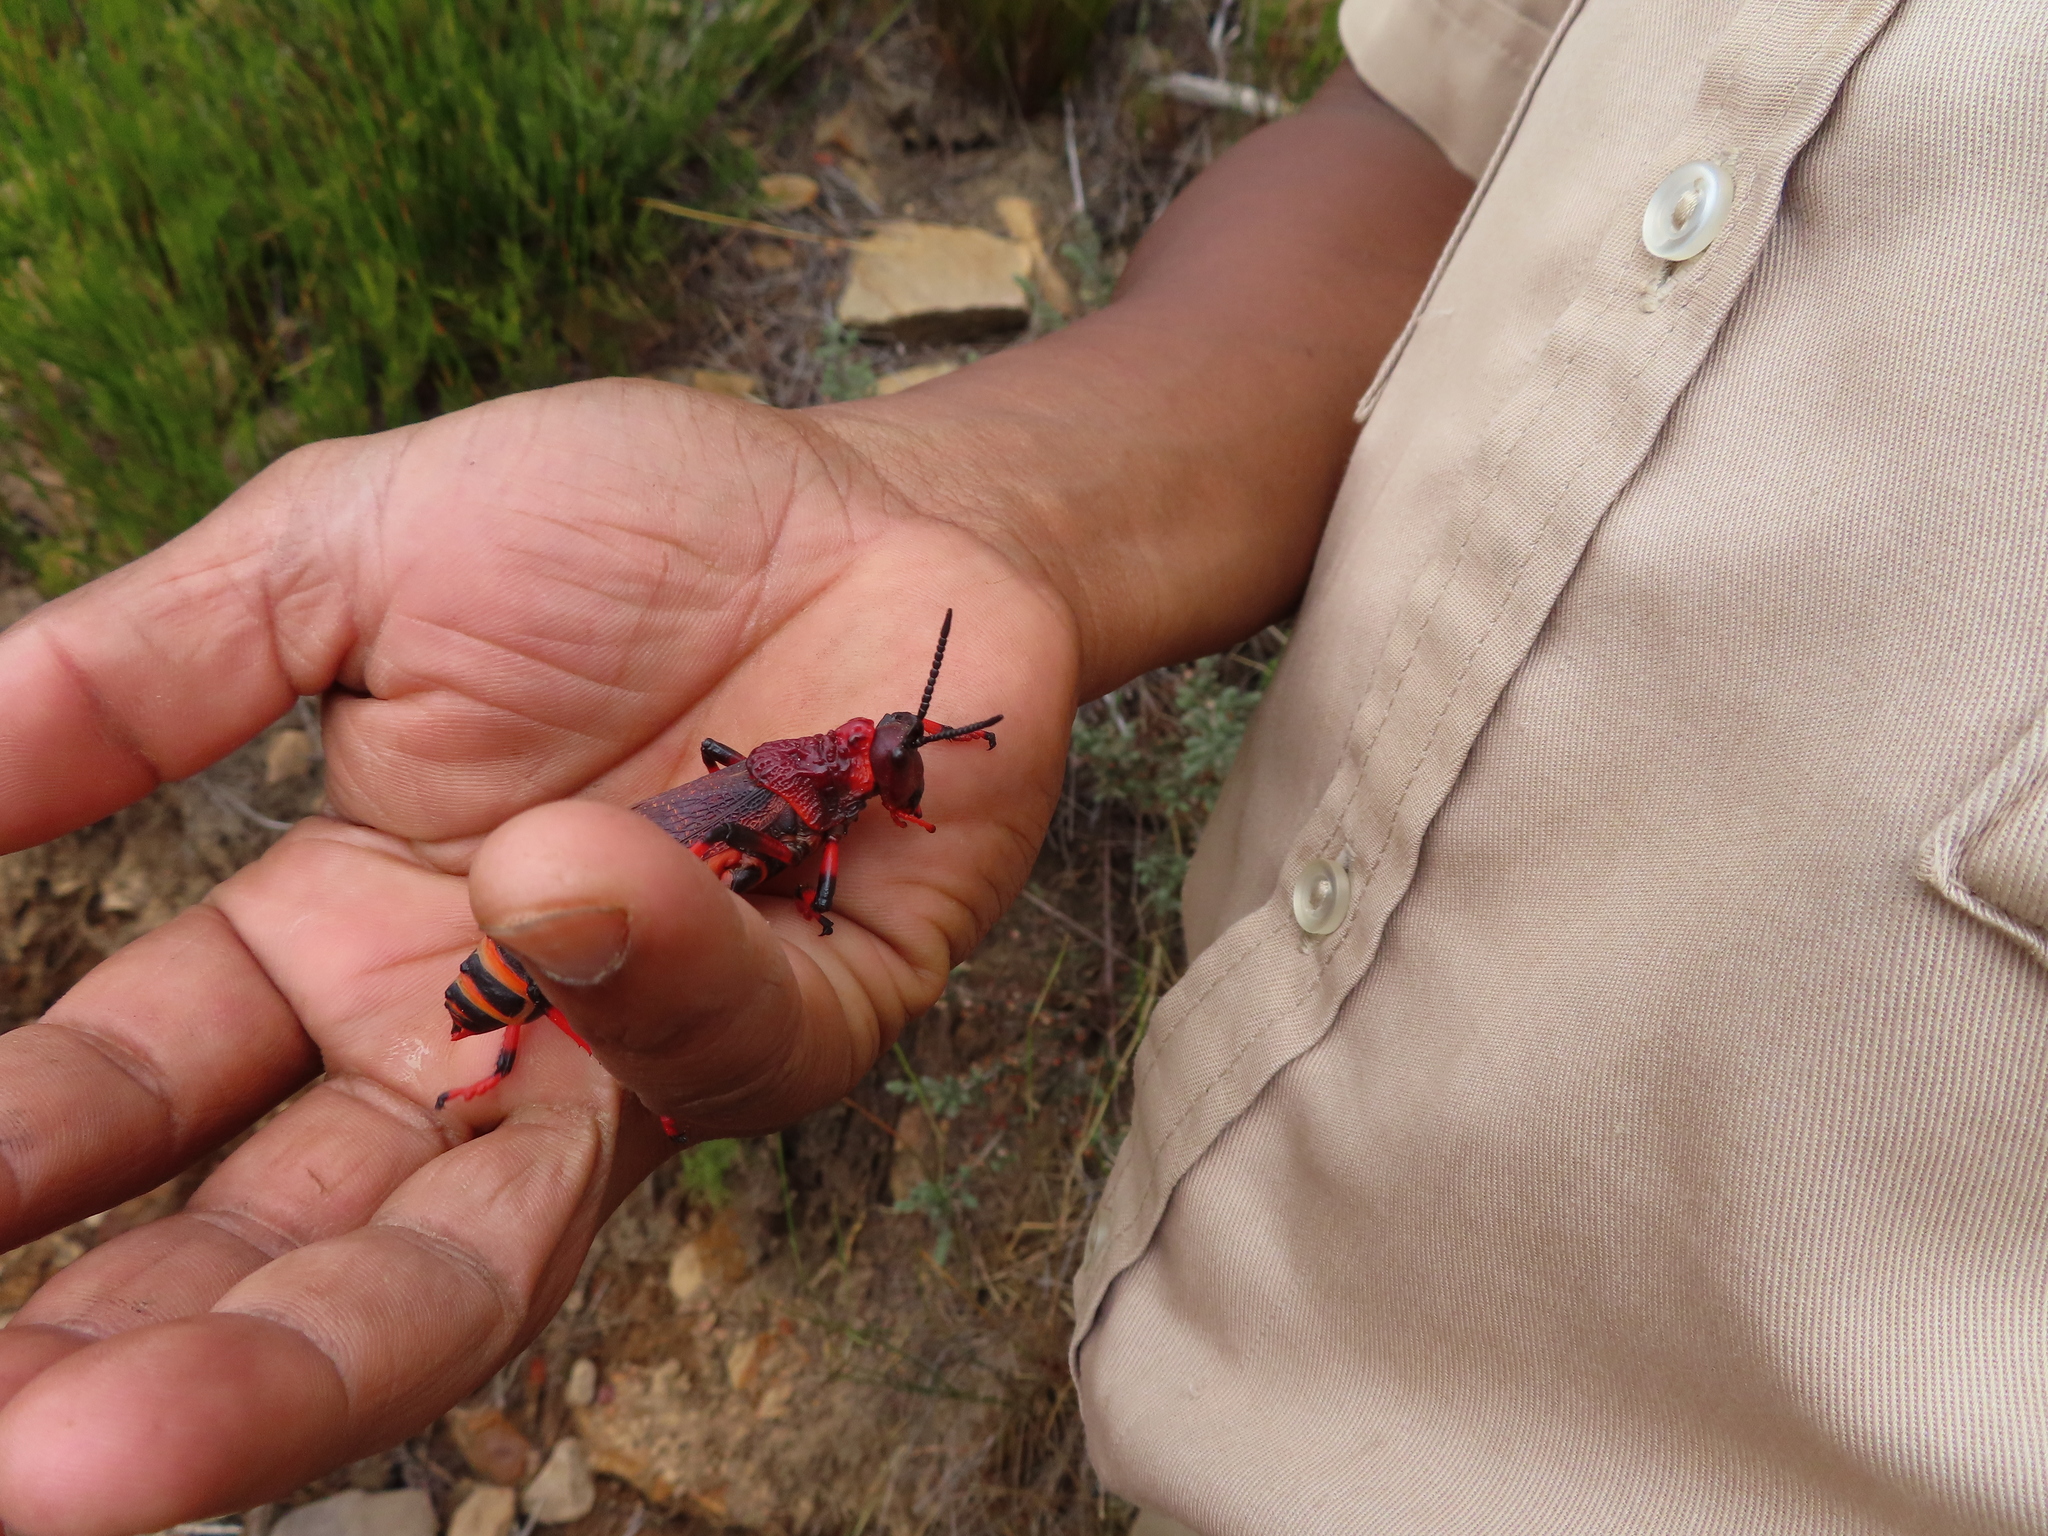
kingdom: Animalia
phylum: Arthropoda
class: Insecta
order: Orthoptera
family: Pyrgomorphidae
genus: Dictyophorus
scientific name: Dictyophorus spumans
